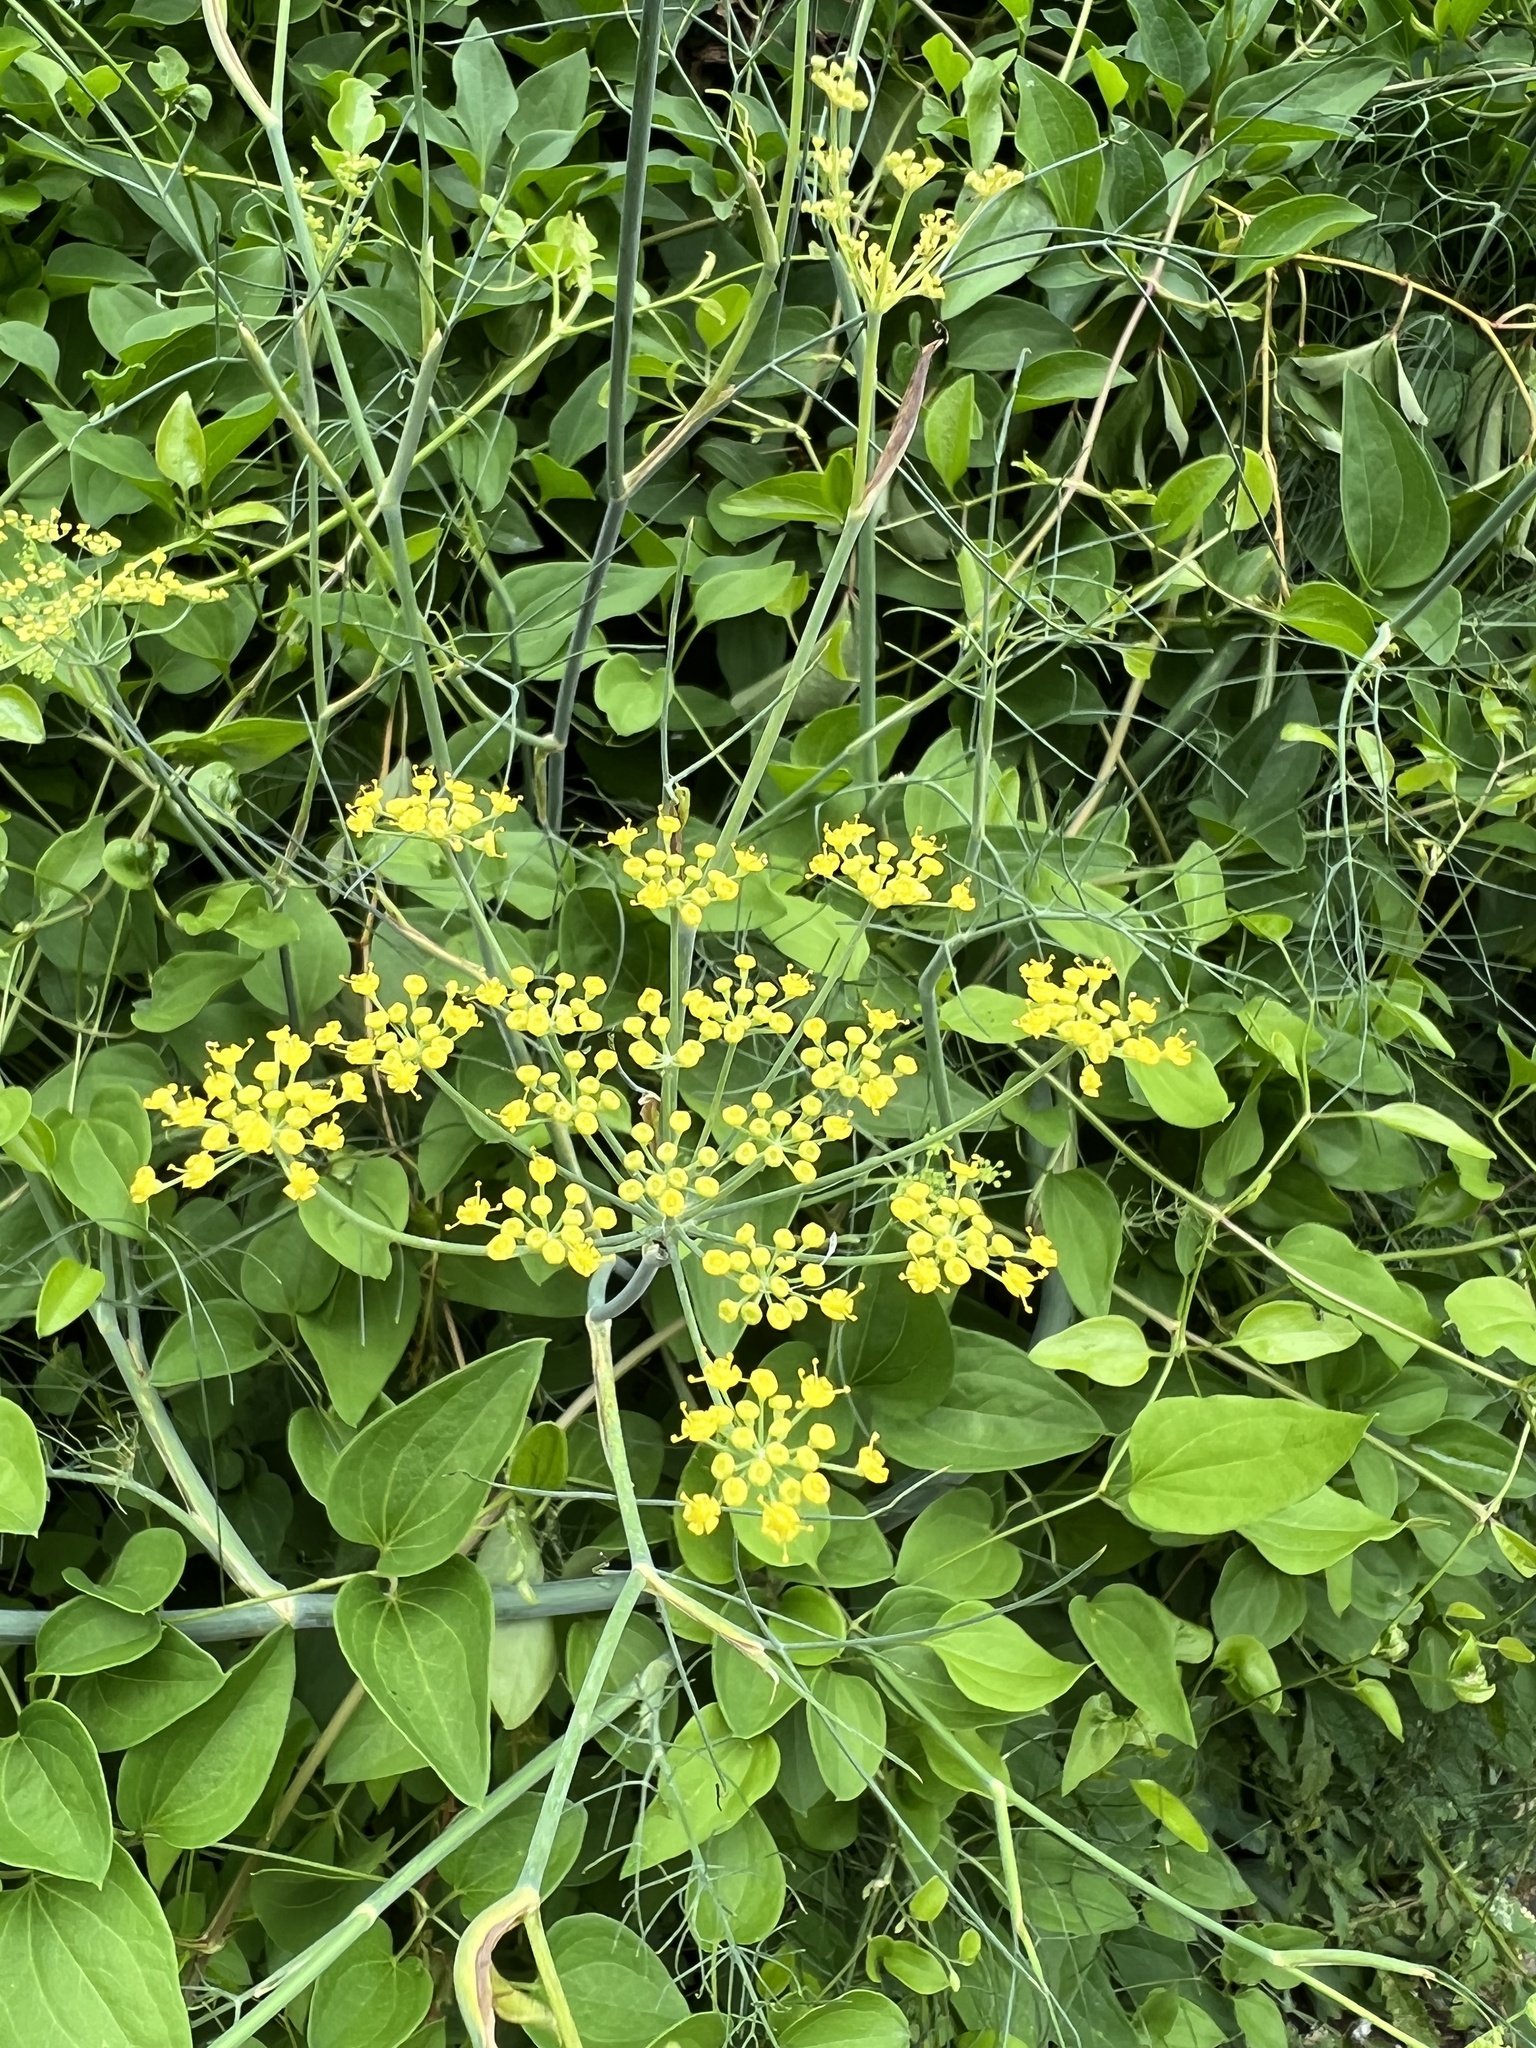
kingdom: Plantae
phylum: Tracheophyta
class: Magnoliopsida
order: Apiales
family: Apiaceae
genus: Anethum
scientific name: Anethum graveolens
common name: Dill
